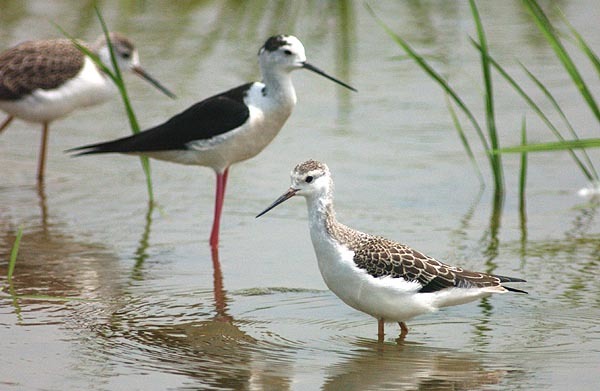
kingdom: Animalia
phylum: Chordata
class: Aves
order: Charadriiformes
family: Recurvirostridae
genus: Himantopus
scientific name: Himantopus himantopus
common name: Black-winged stilt
